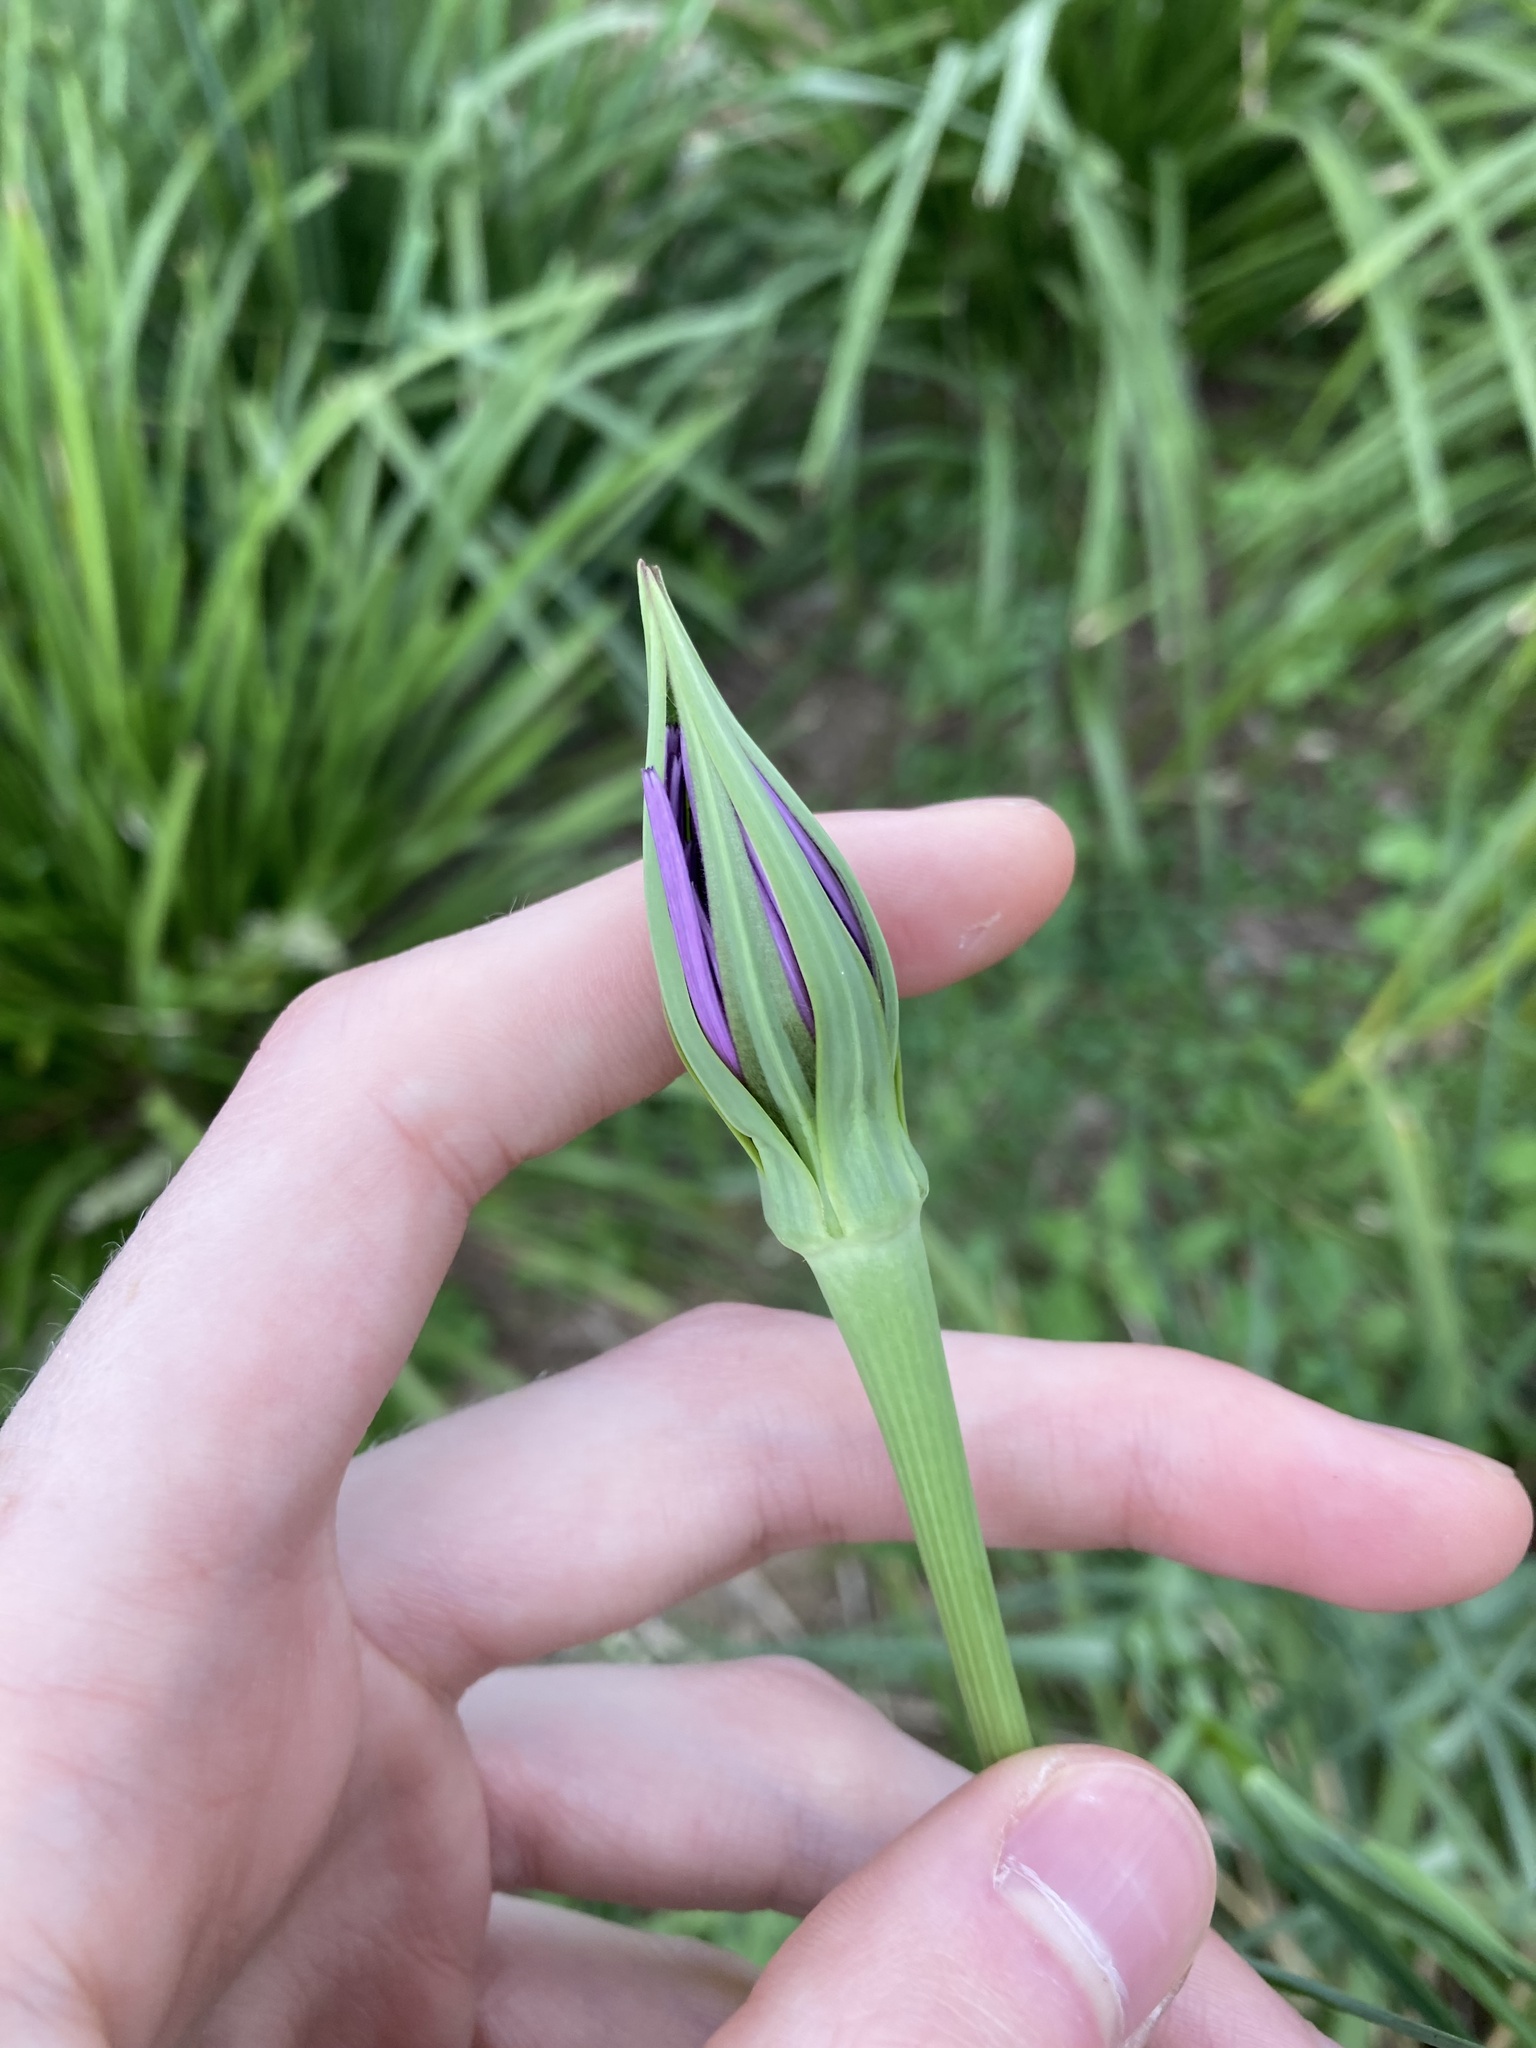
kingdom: Plantae
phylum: Tracheophyta
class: Magnoliopsida
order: Asterales
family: Asteraceae
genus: Tragopogon
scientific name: Tragopogon porrifolius
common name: Salsify
